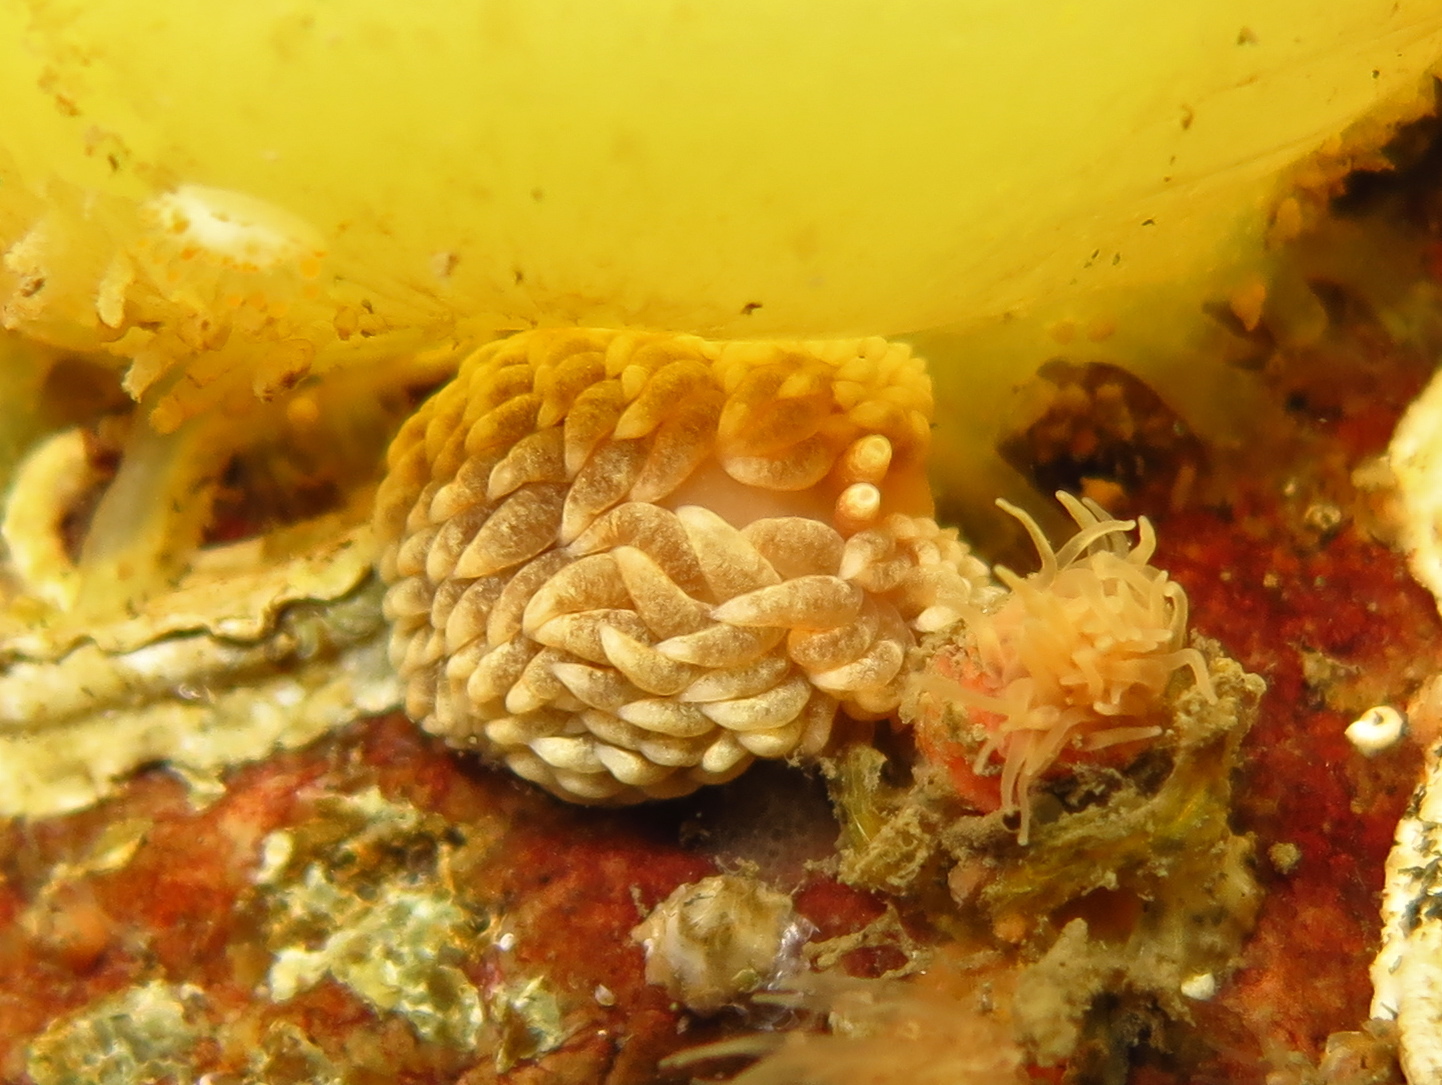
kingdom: Animalia
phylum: Mollusca
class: Gastropoda
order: Nudibranchia
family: Aeolidiidae
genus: Aeolidiella
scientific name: Aeolidiella glauca
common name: Orange-brown aeolid
